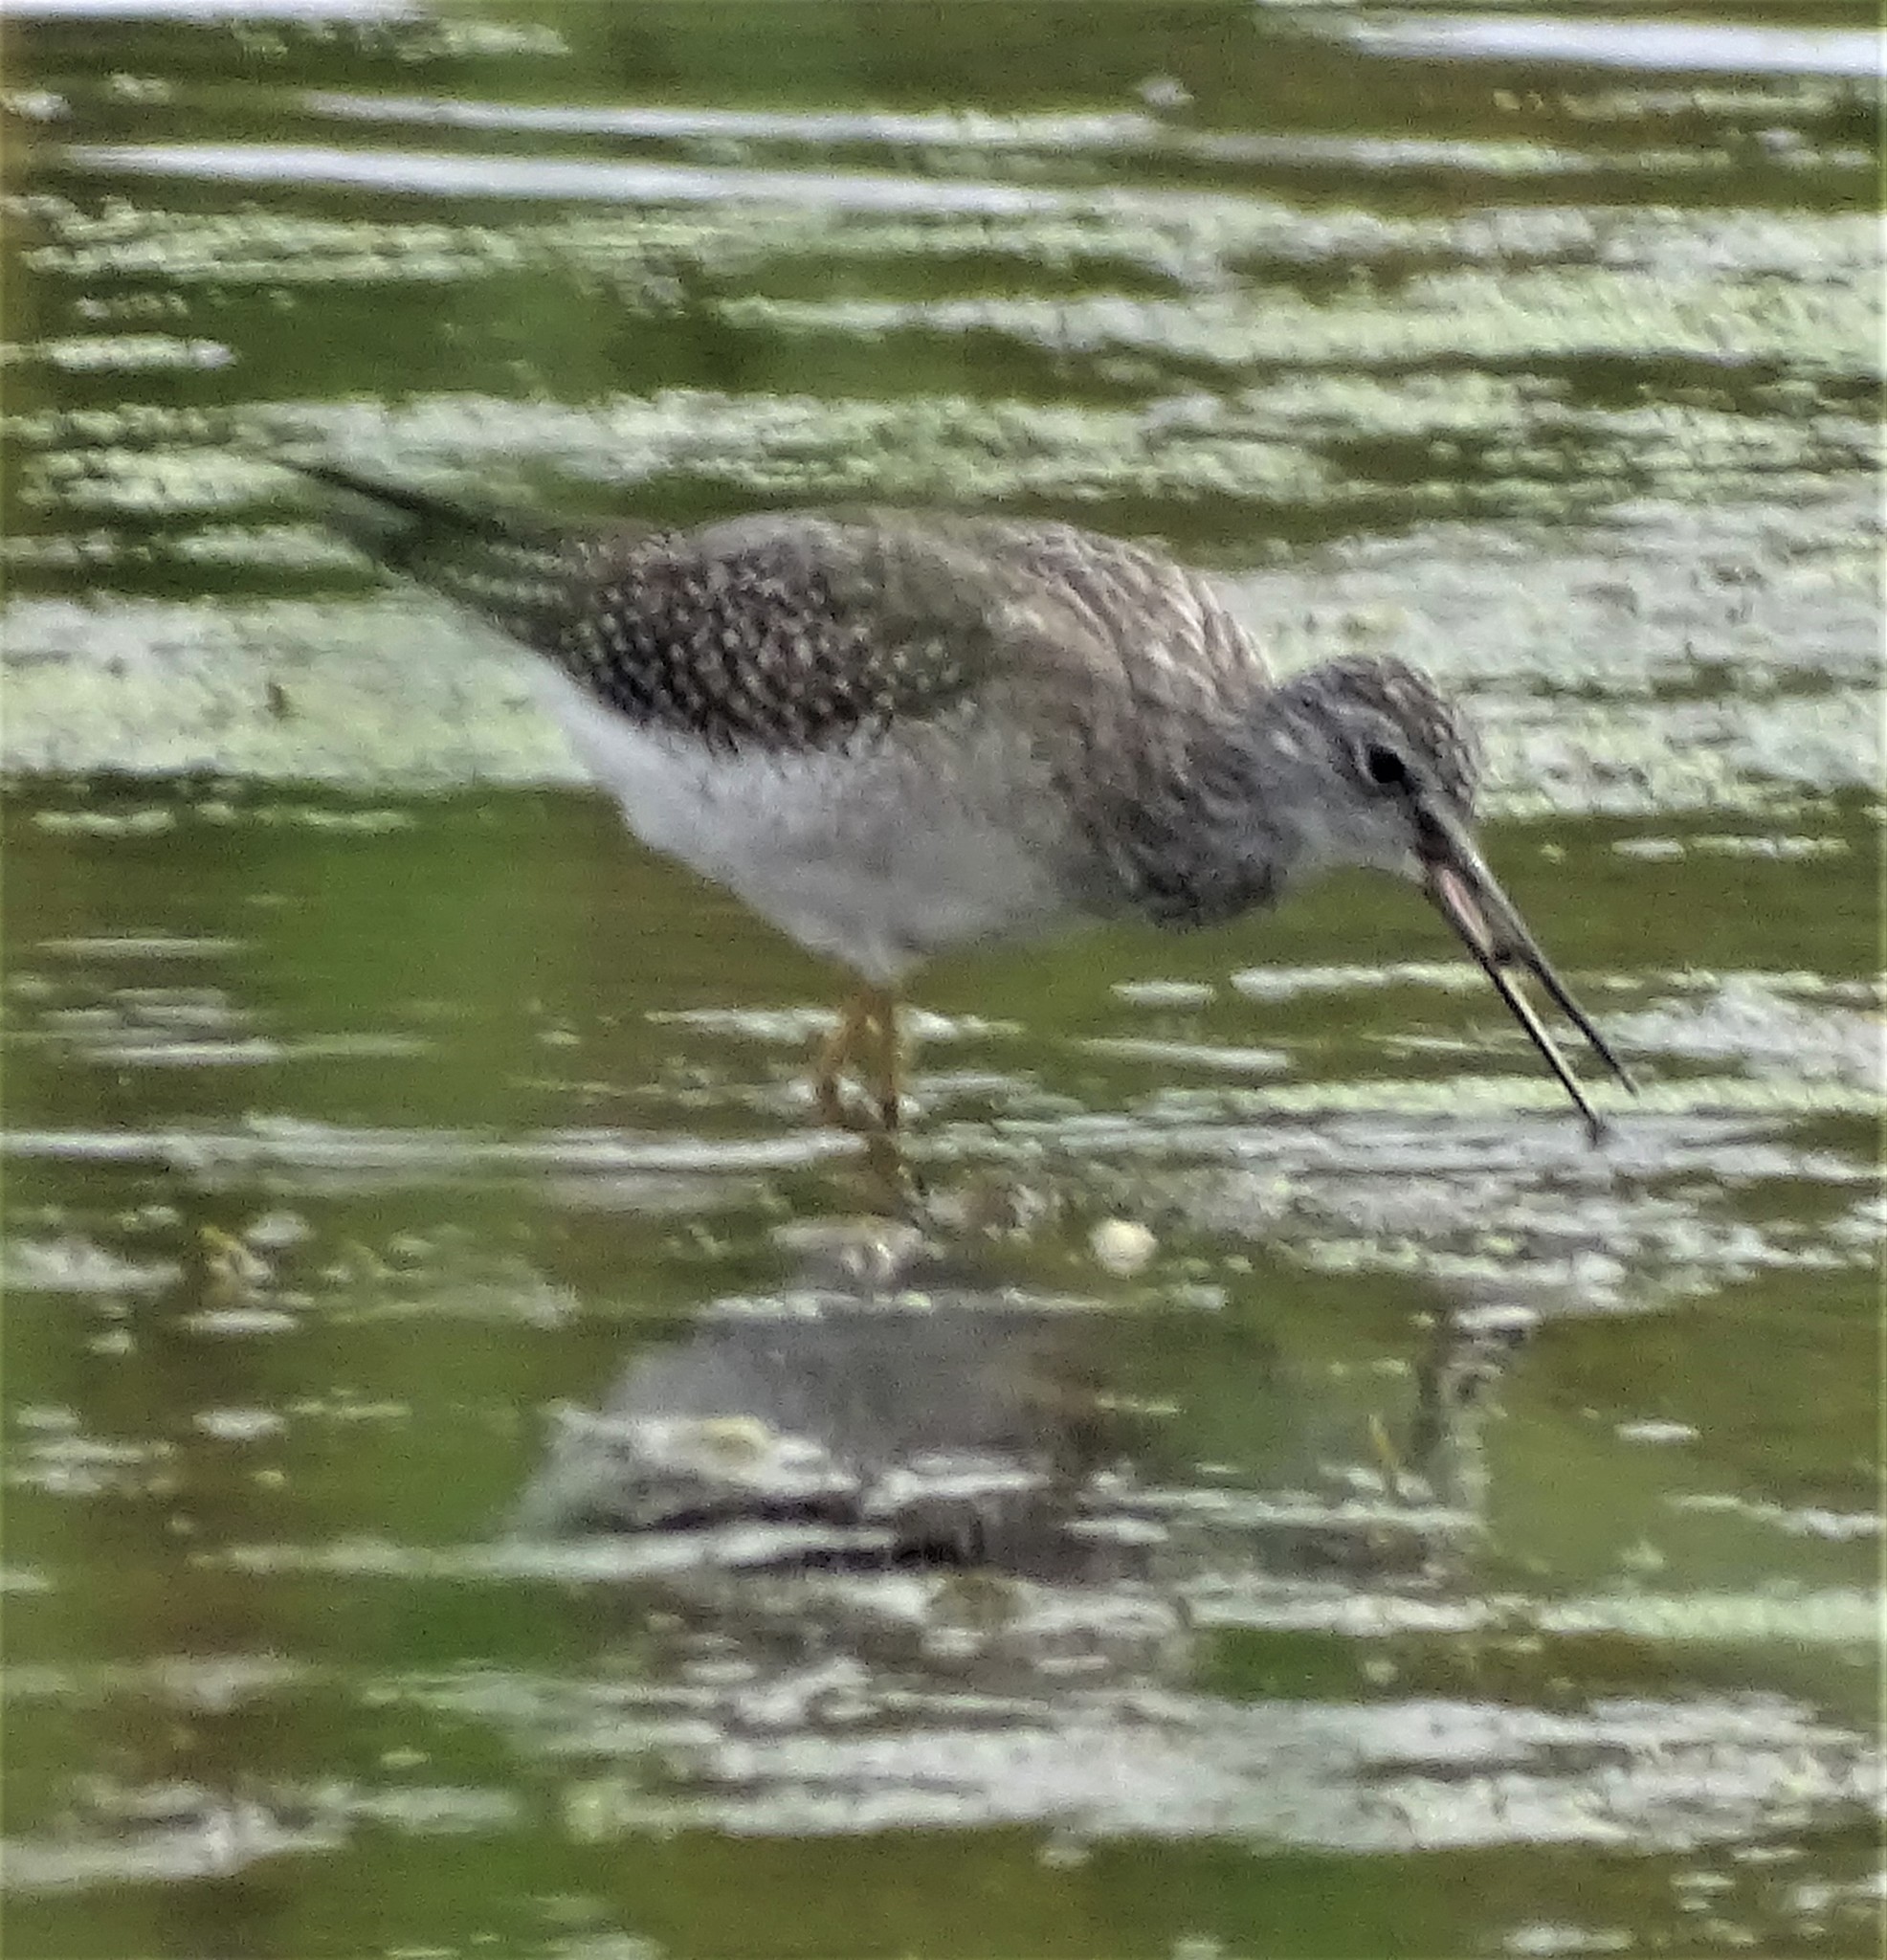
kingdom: Animalia
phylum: Chordata
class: Aves
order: Charadriiformes
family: Scolopacidae
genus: Tringa
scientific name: Tringa melanoleuca
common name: Greater yellowlegs
